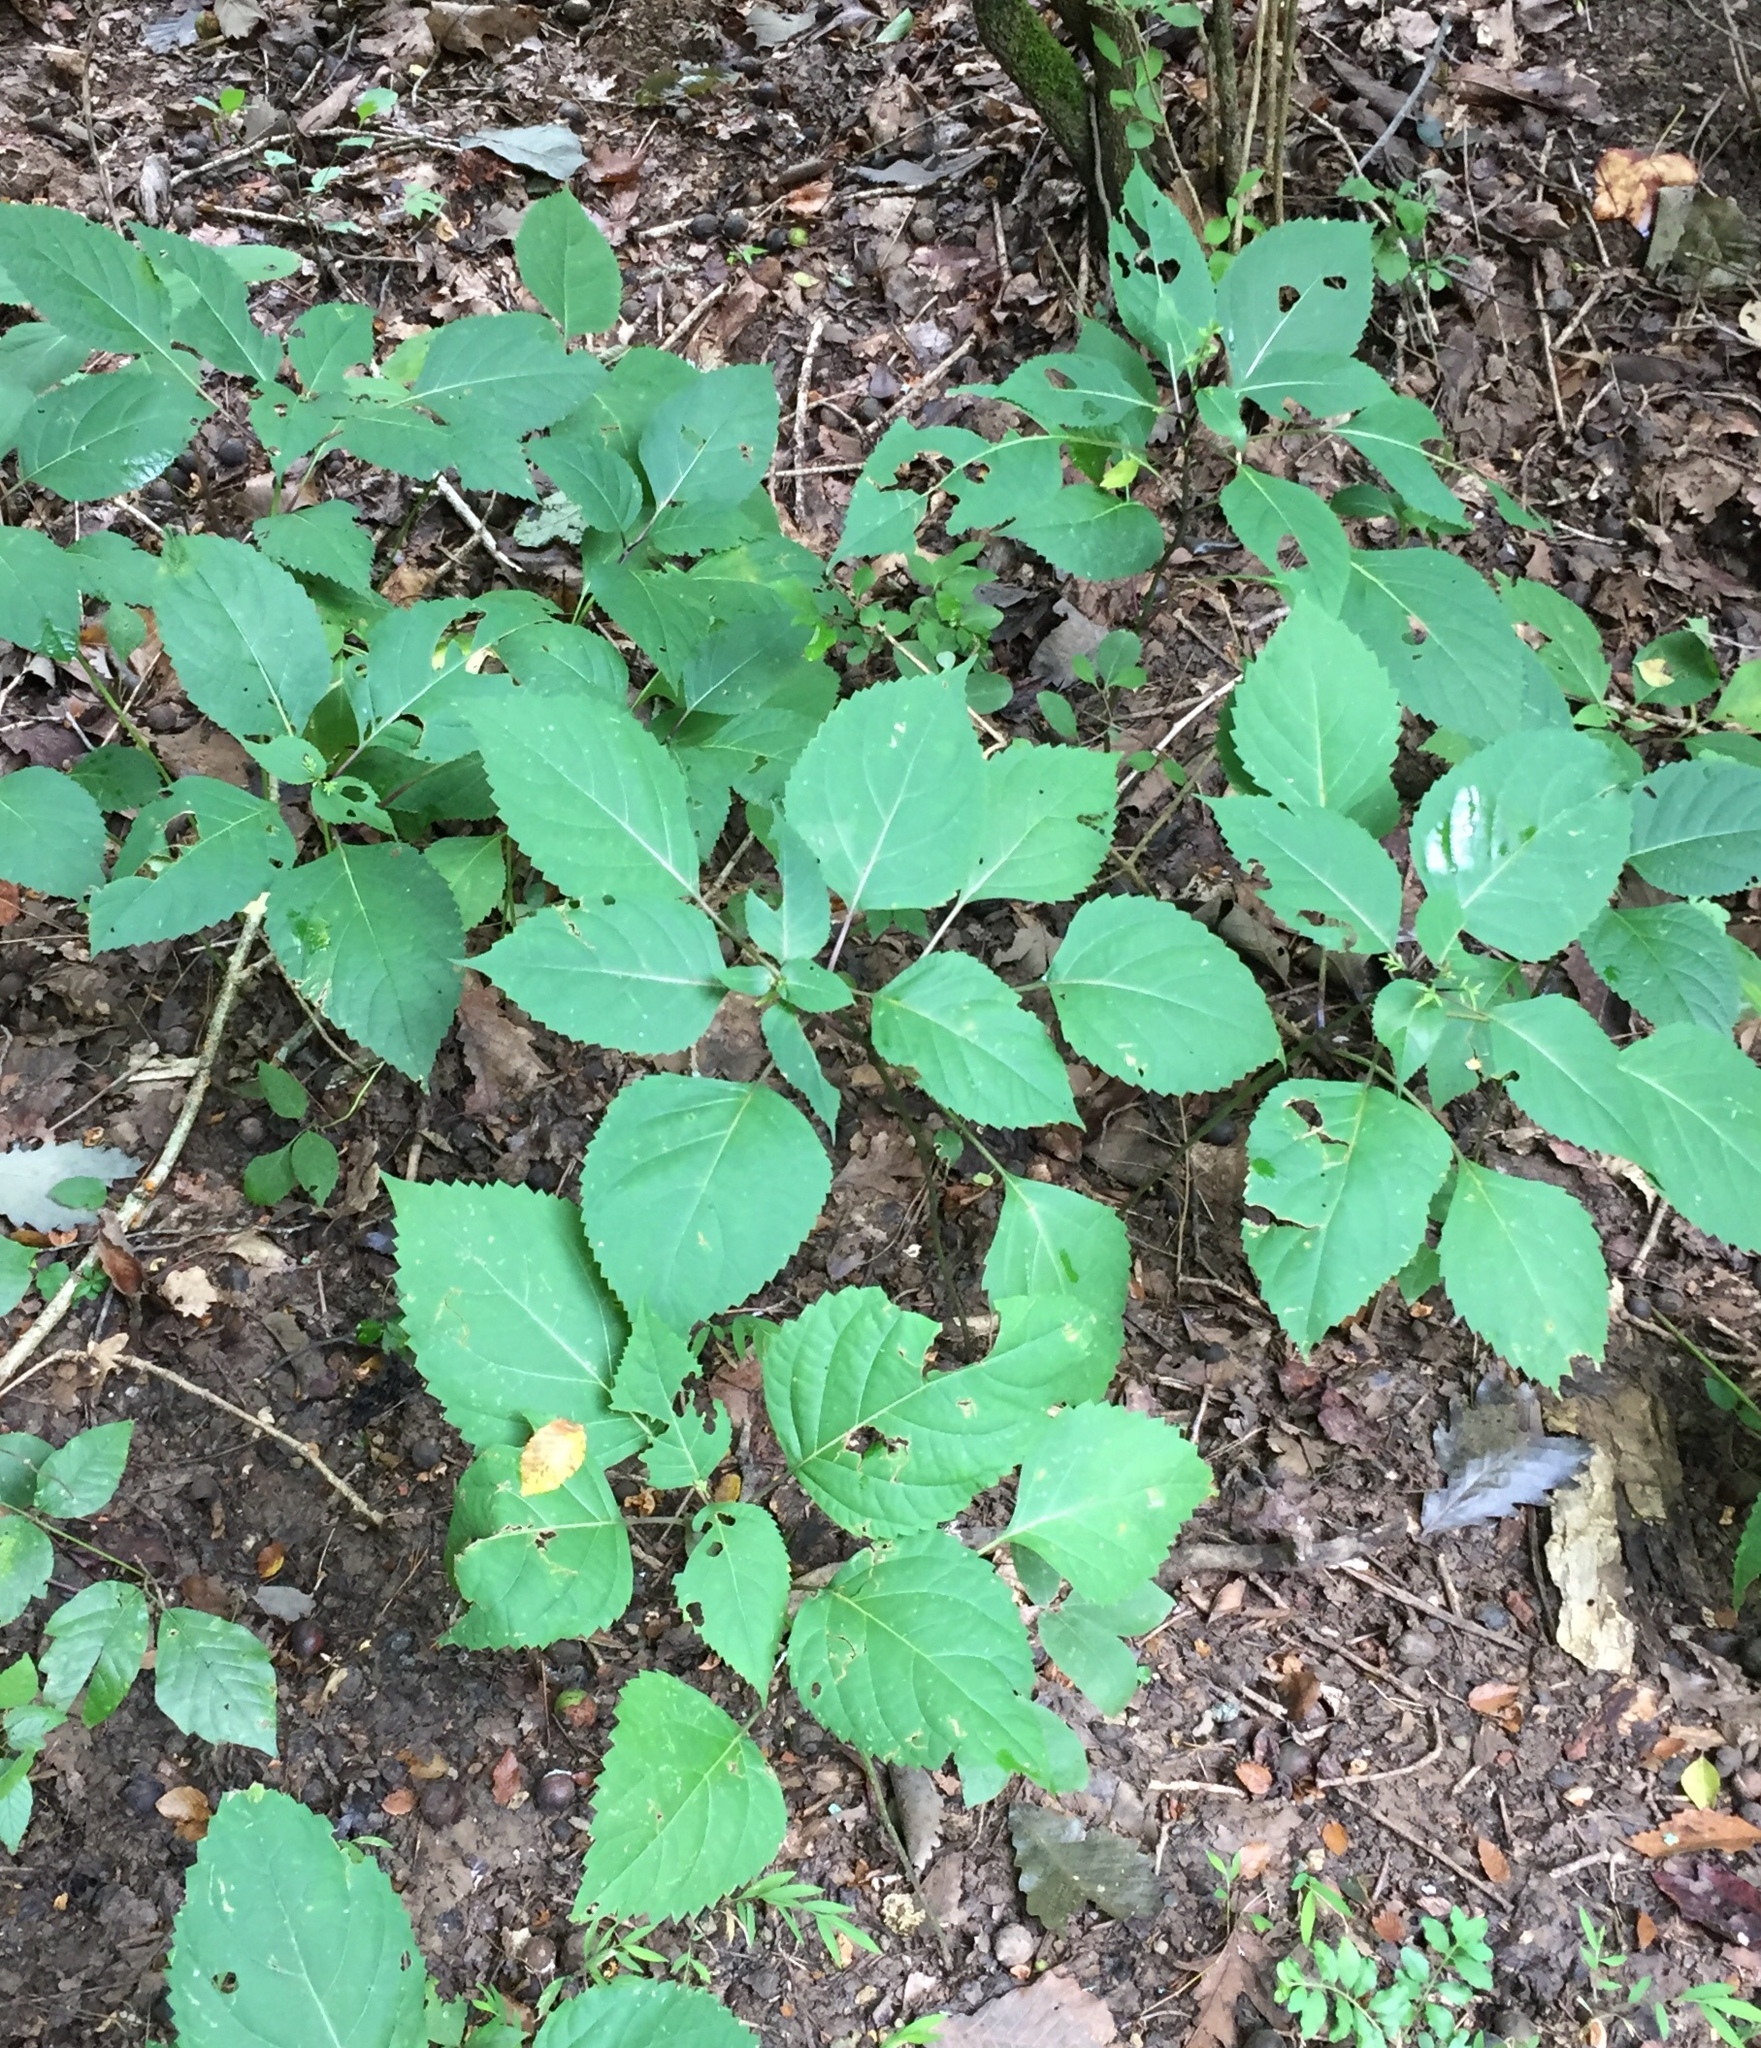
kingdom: Plantae
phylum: Tracheophyta
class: Magnoliopsida
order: Lamiales
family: Lamiaceae
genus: Collinsonia
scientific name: Collinsonia canadensis
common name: Northern horsebalm
